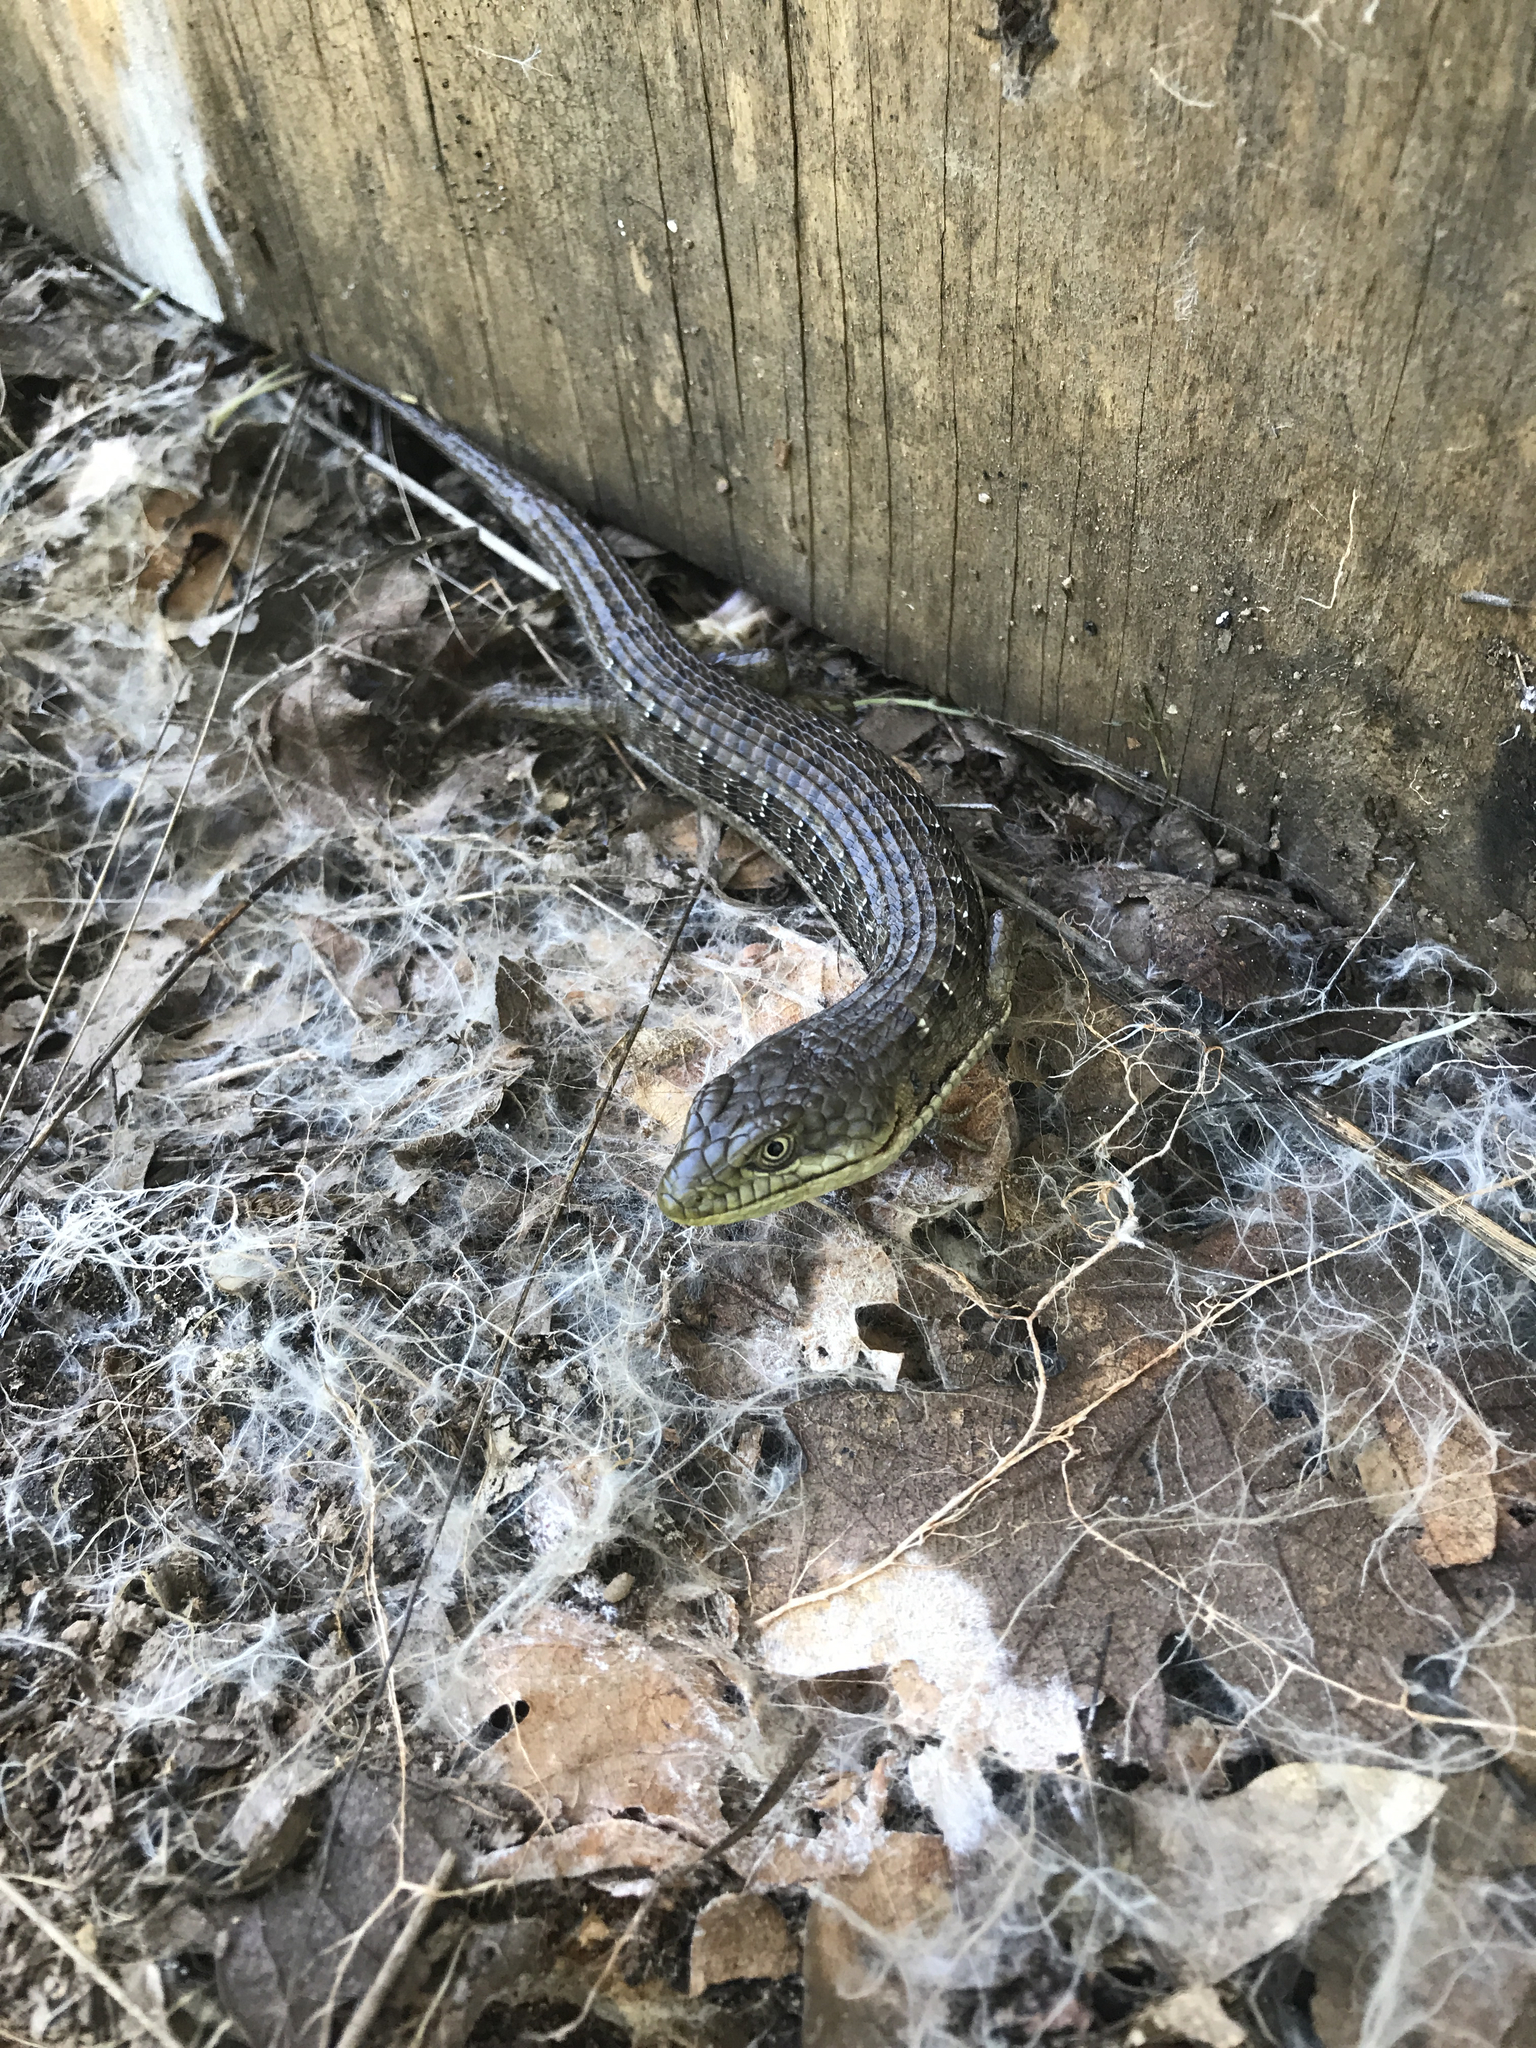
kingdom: Animalia
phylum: Chordata
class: Squamata
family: Anguidae
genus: Elgaria
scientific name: Elgaria multicarinata
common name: Southern alligator lizard
